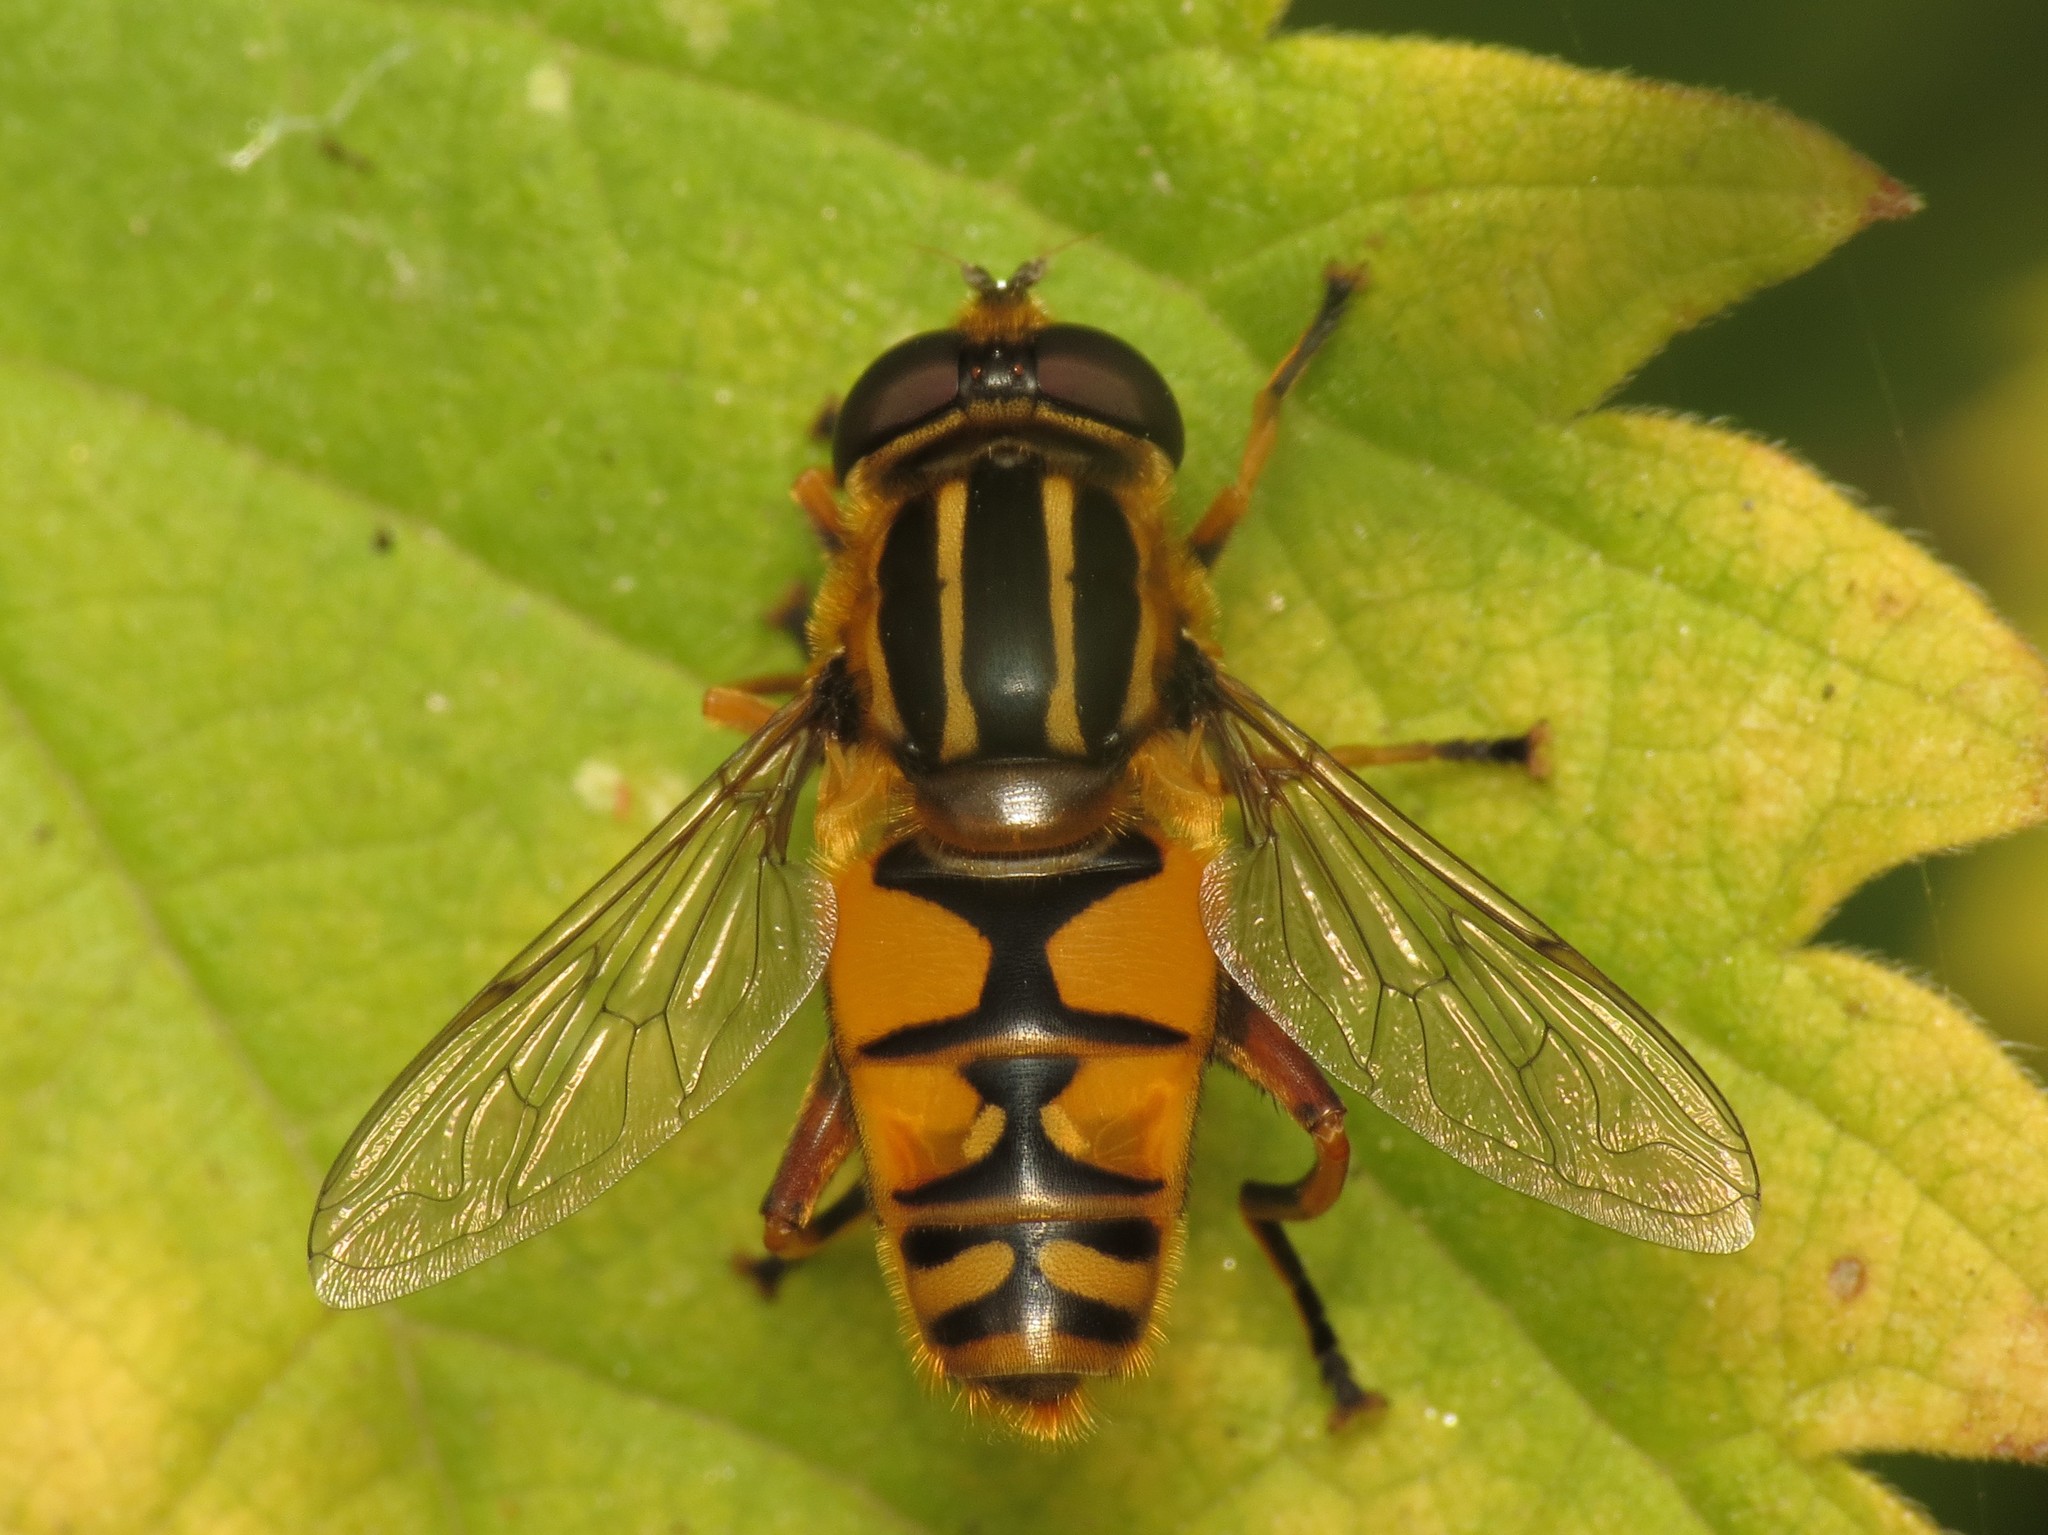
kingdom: Animalia
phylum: Arthropoda
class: Insecta
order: Diptera
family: Syrphidae
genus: Helophilus
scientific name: Helophilus pendulus
